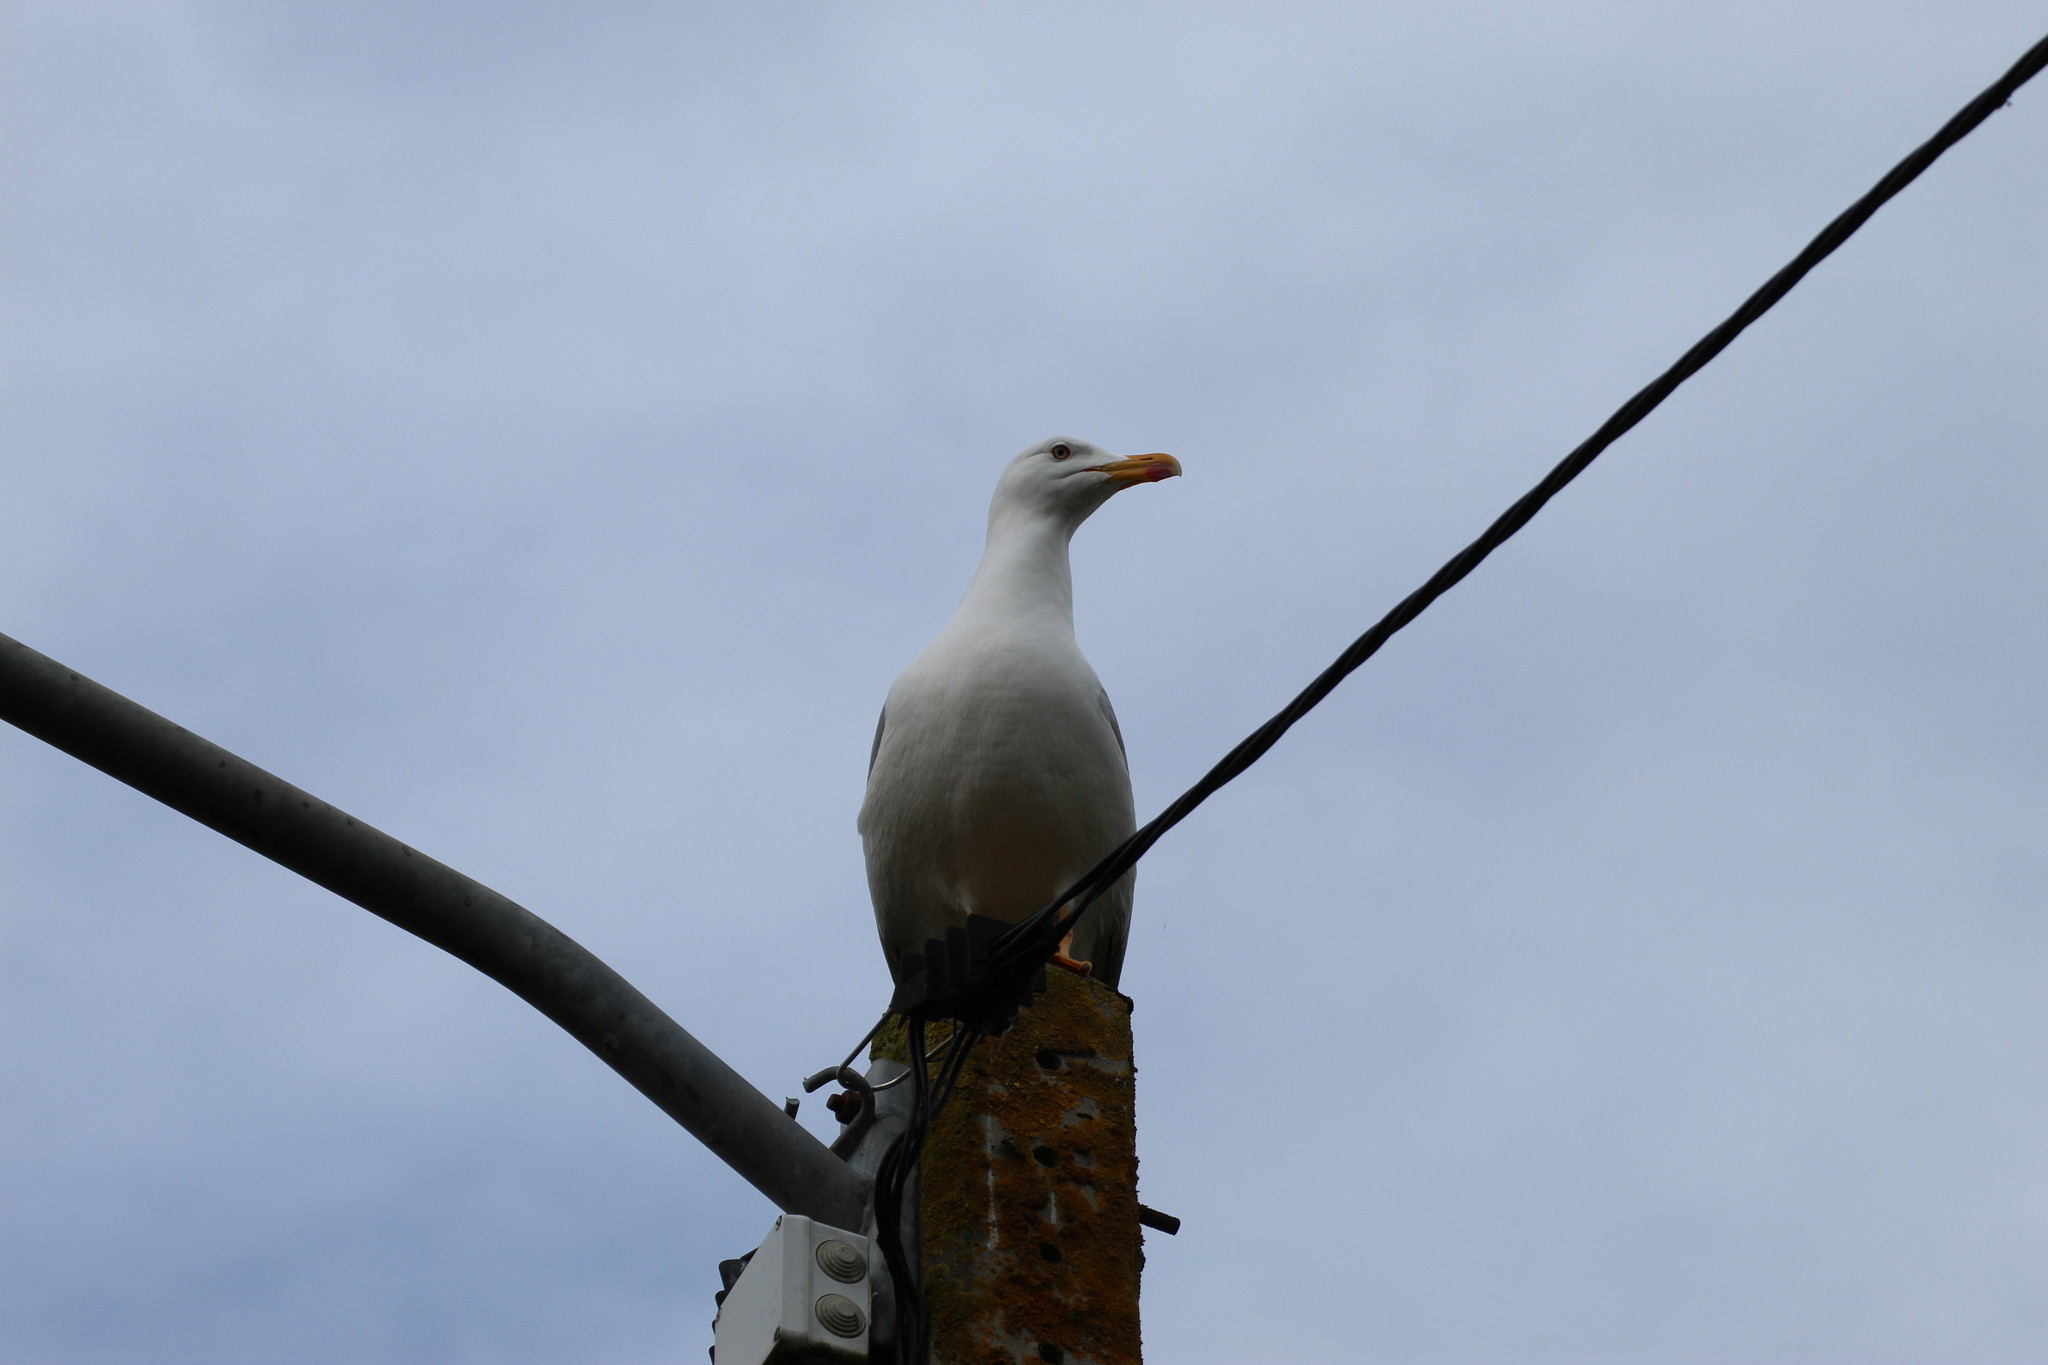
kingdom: Animalia
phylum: Chordata
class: Aves
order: Charadriiformes
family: Laridae
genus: Larus
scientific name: Larus michahellis
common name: Yellow-legged gull
